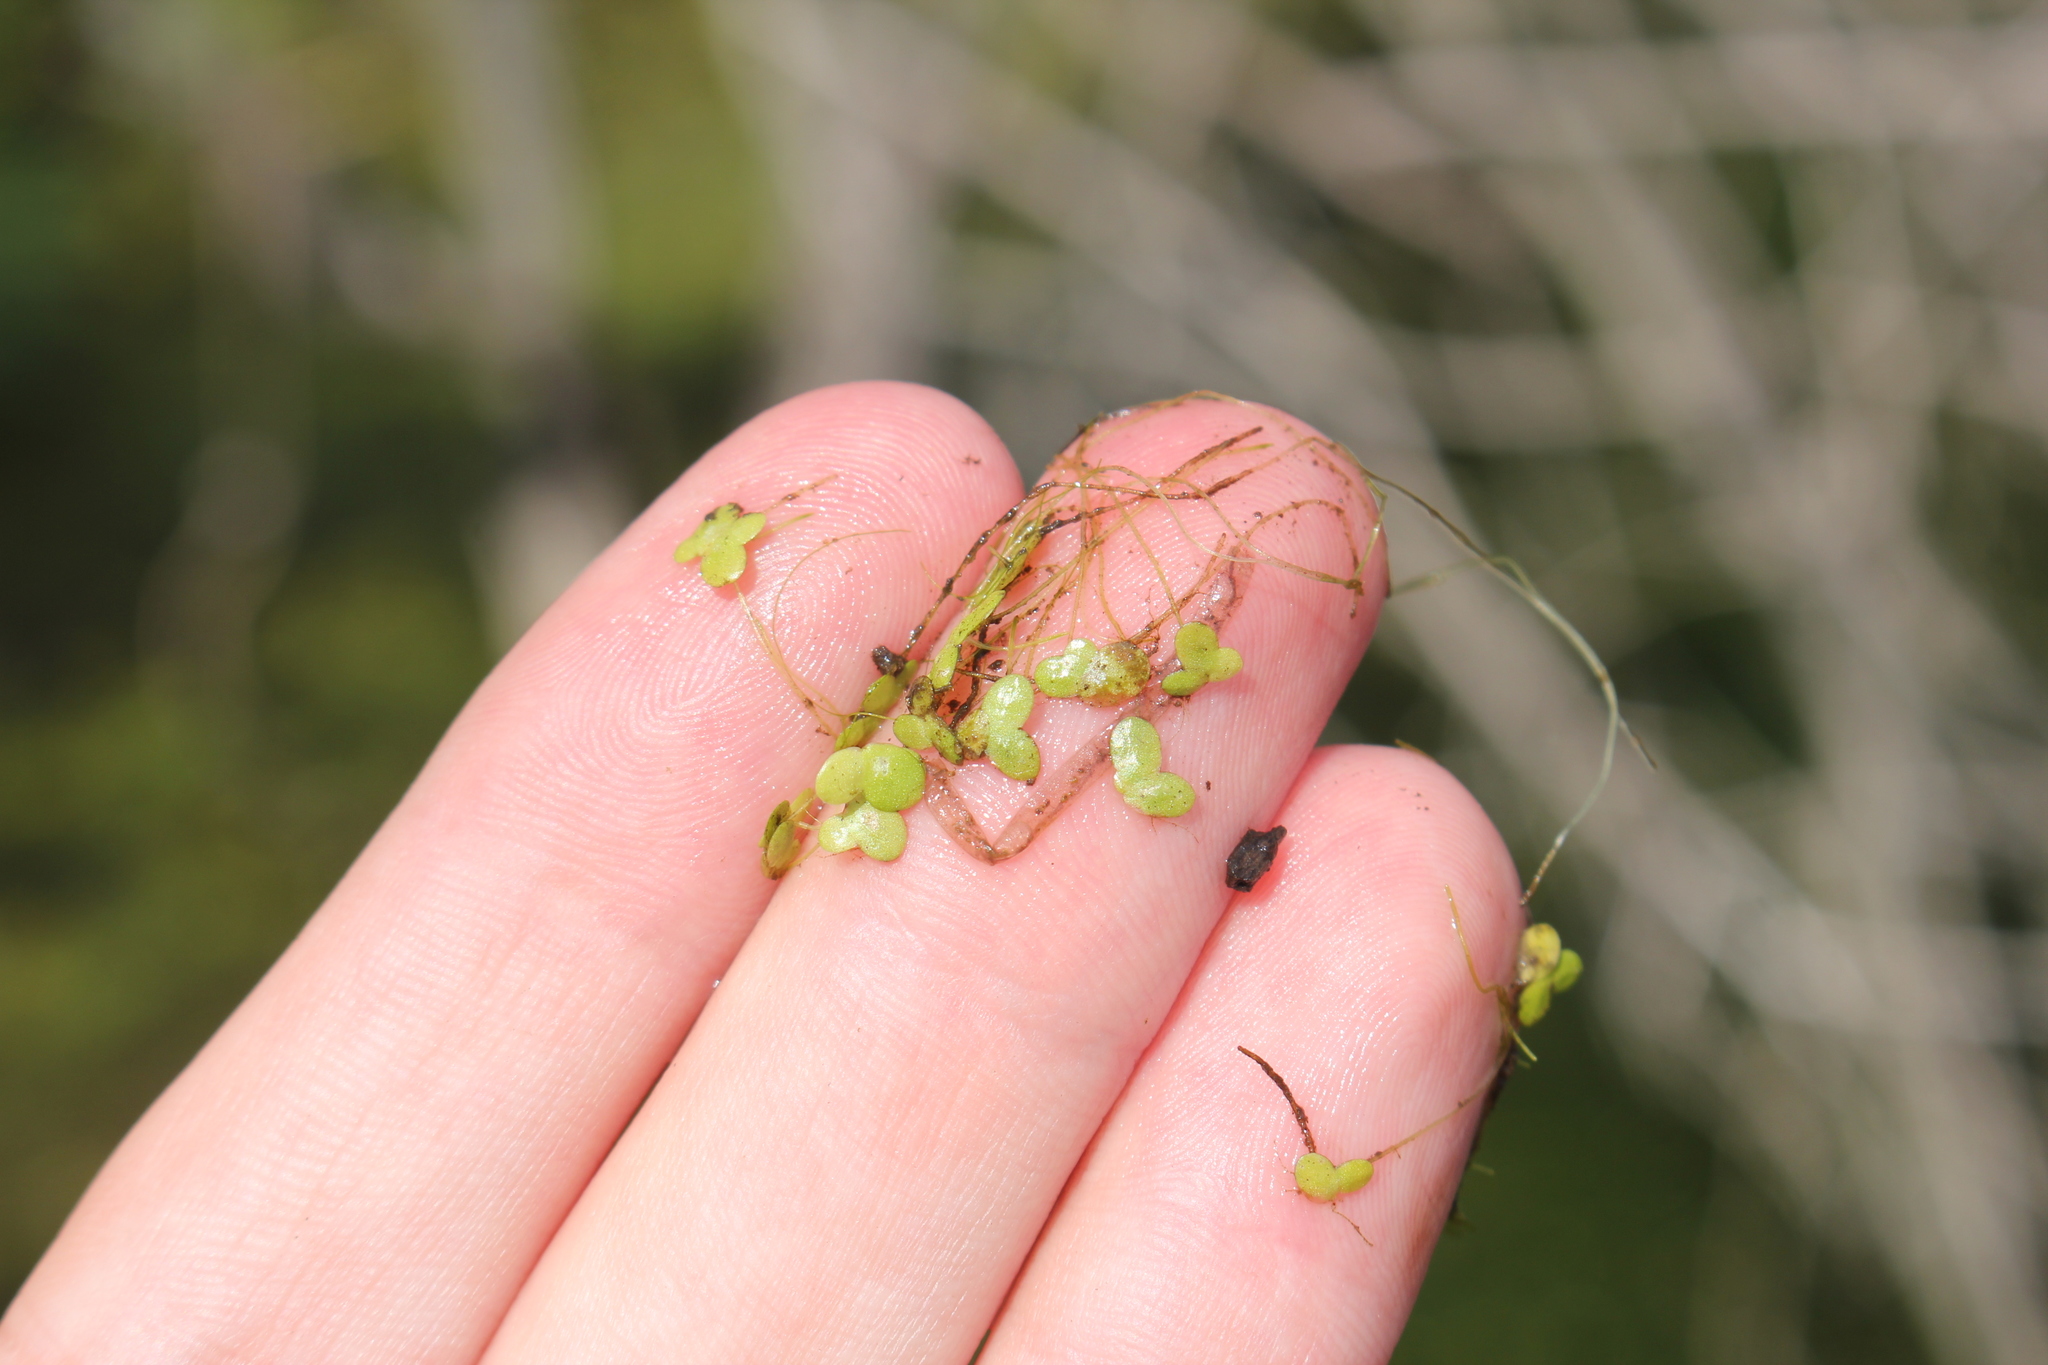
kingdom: Plantae
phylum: Tracheophyta
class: Liliopsida
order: Alismatales
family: Araceae
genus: Lemna
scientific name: Lemna minor
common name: Common duckweed
